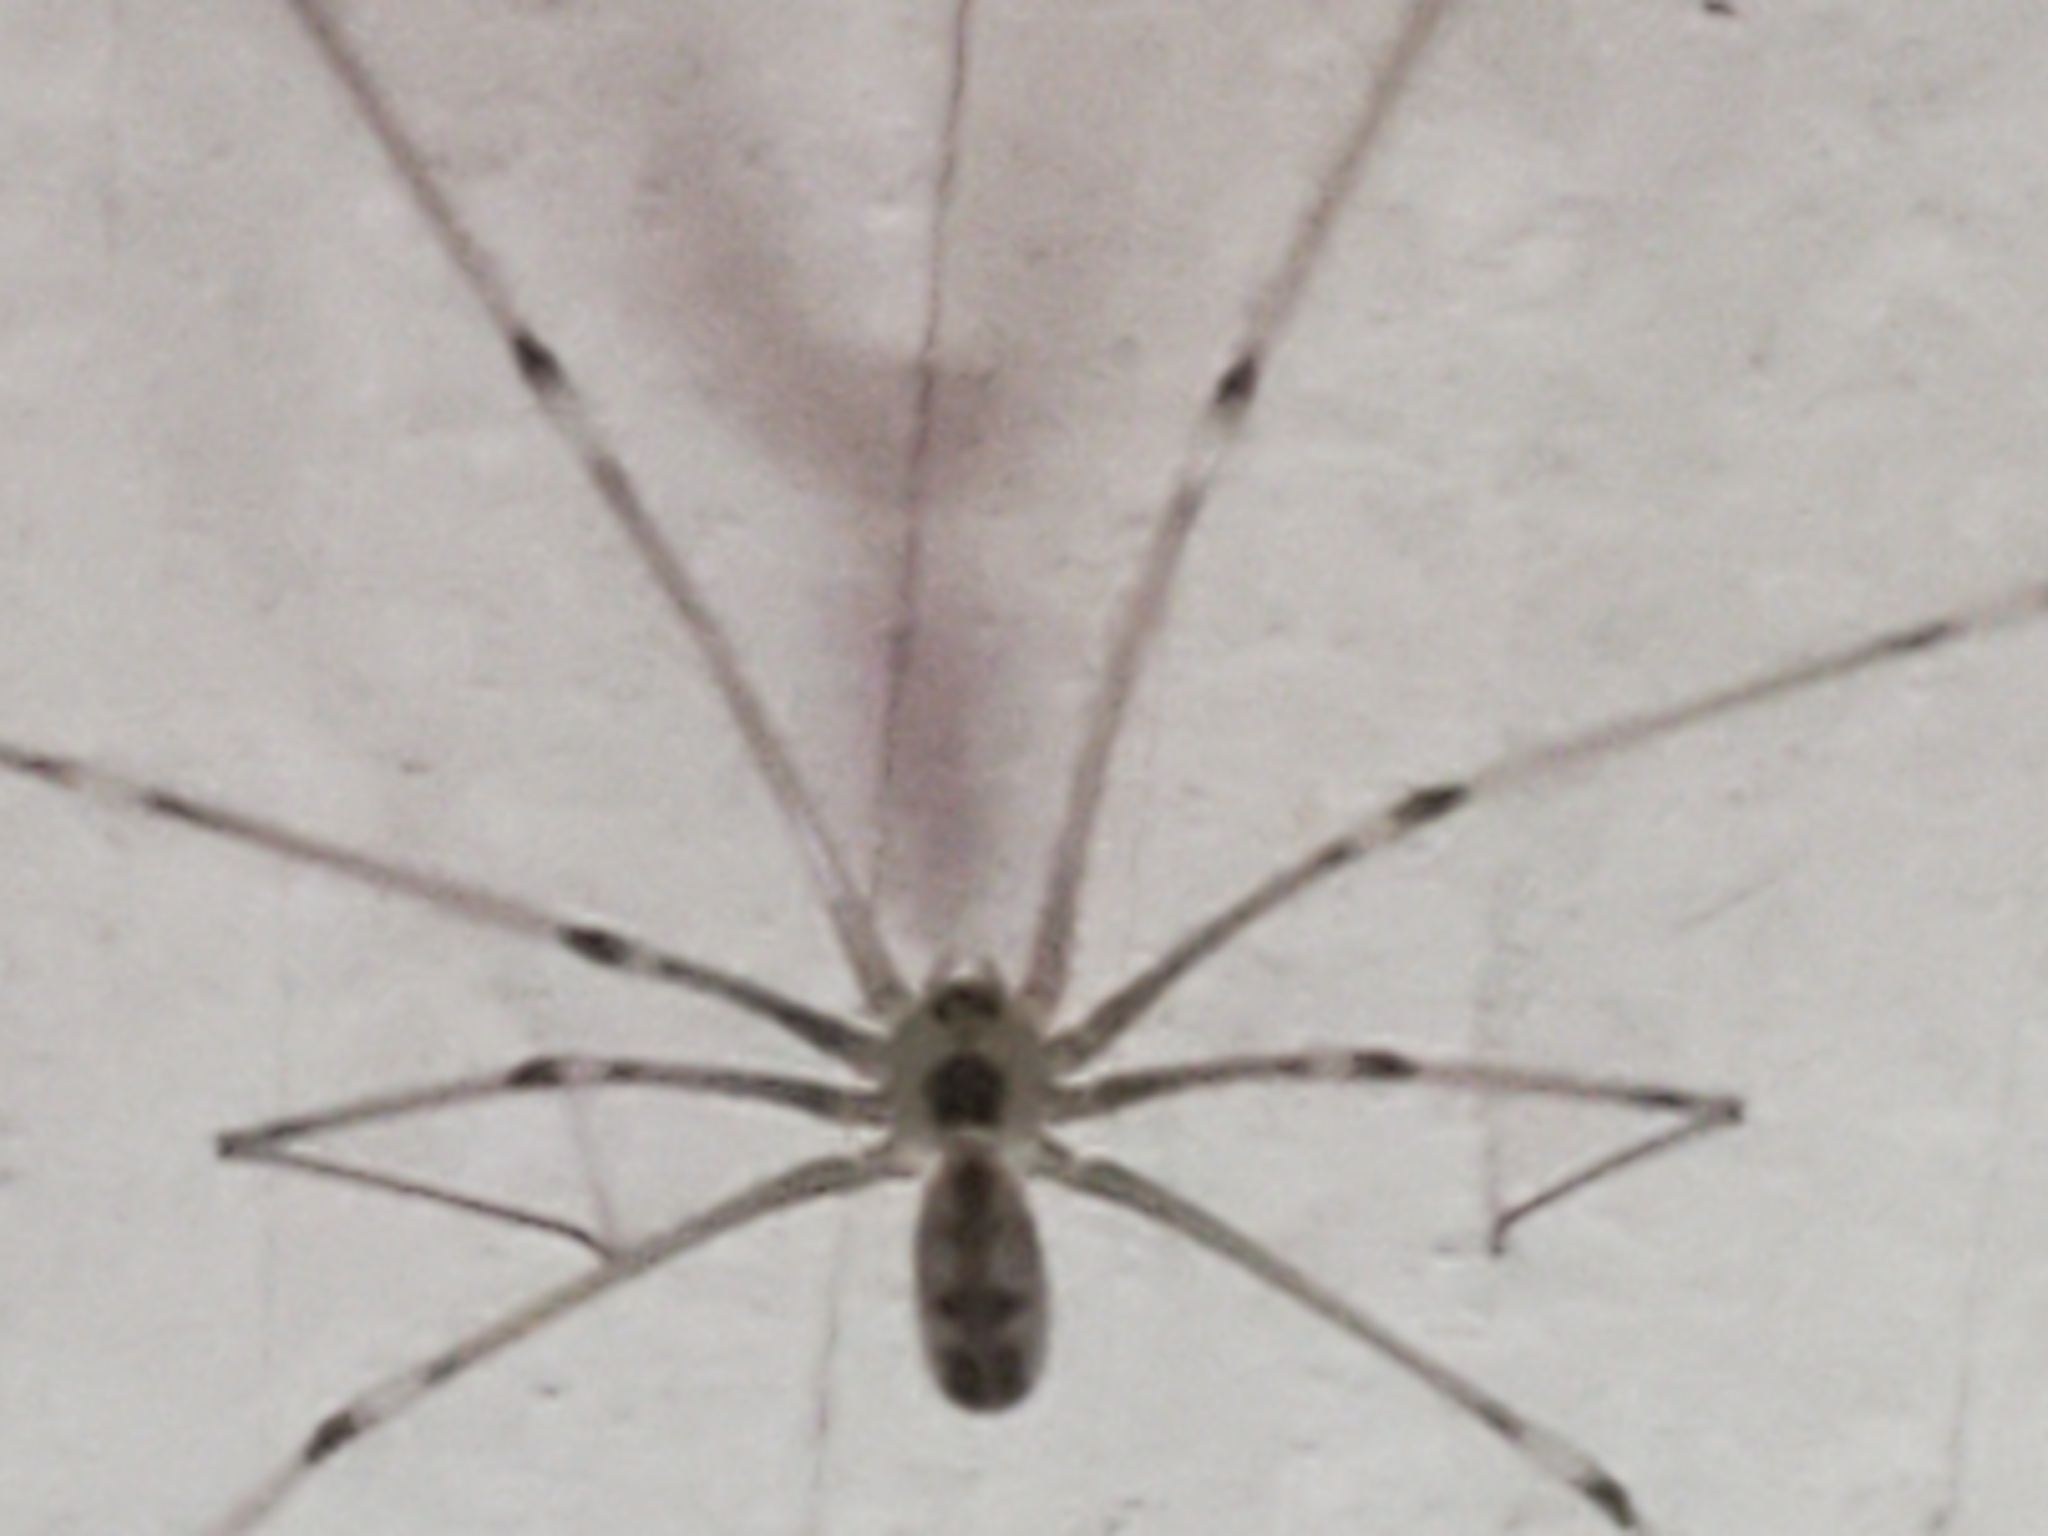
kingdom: Animalia
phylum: Arthropoda
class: Arachnida
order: Araneae
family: Pholcidae
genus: Pholcus
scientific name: Pholcus phalangioides
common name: Longbodied cellar spider
